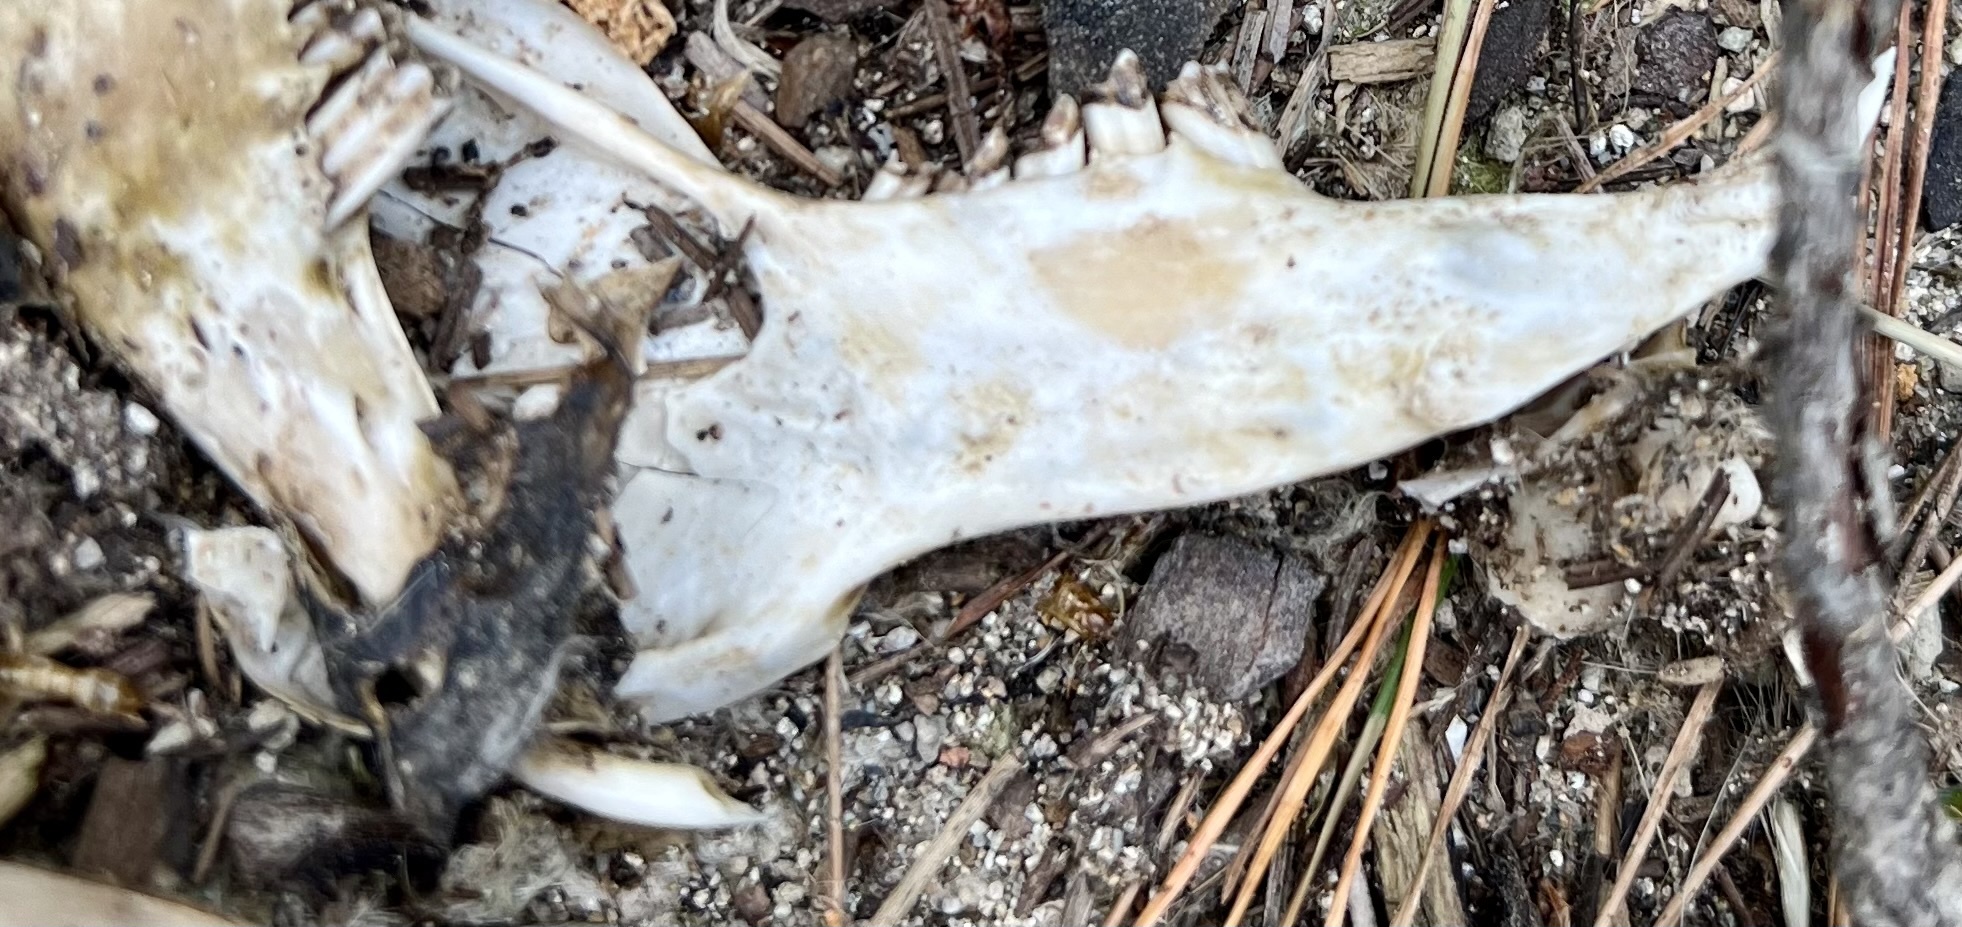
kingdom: Animalia
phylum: Chordata
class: Mammalia
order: Diprotodontia
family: Phalangeridae
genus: Trichosurus
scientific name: Trichosurus vulpecula
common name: Common brushtail
